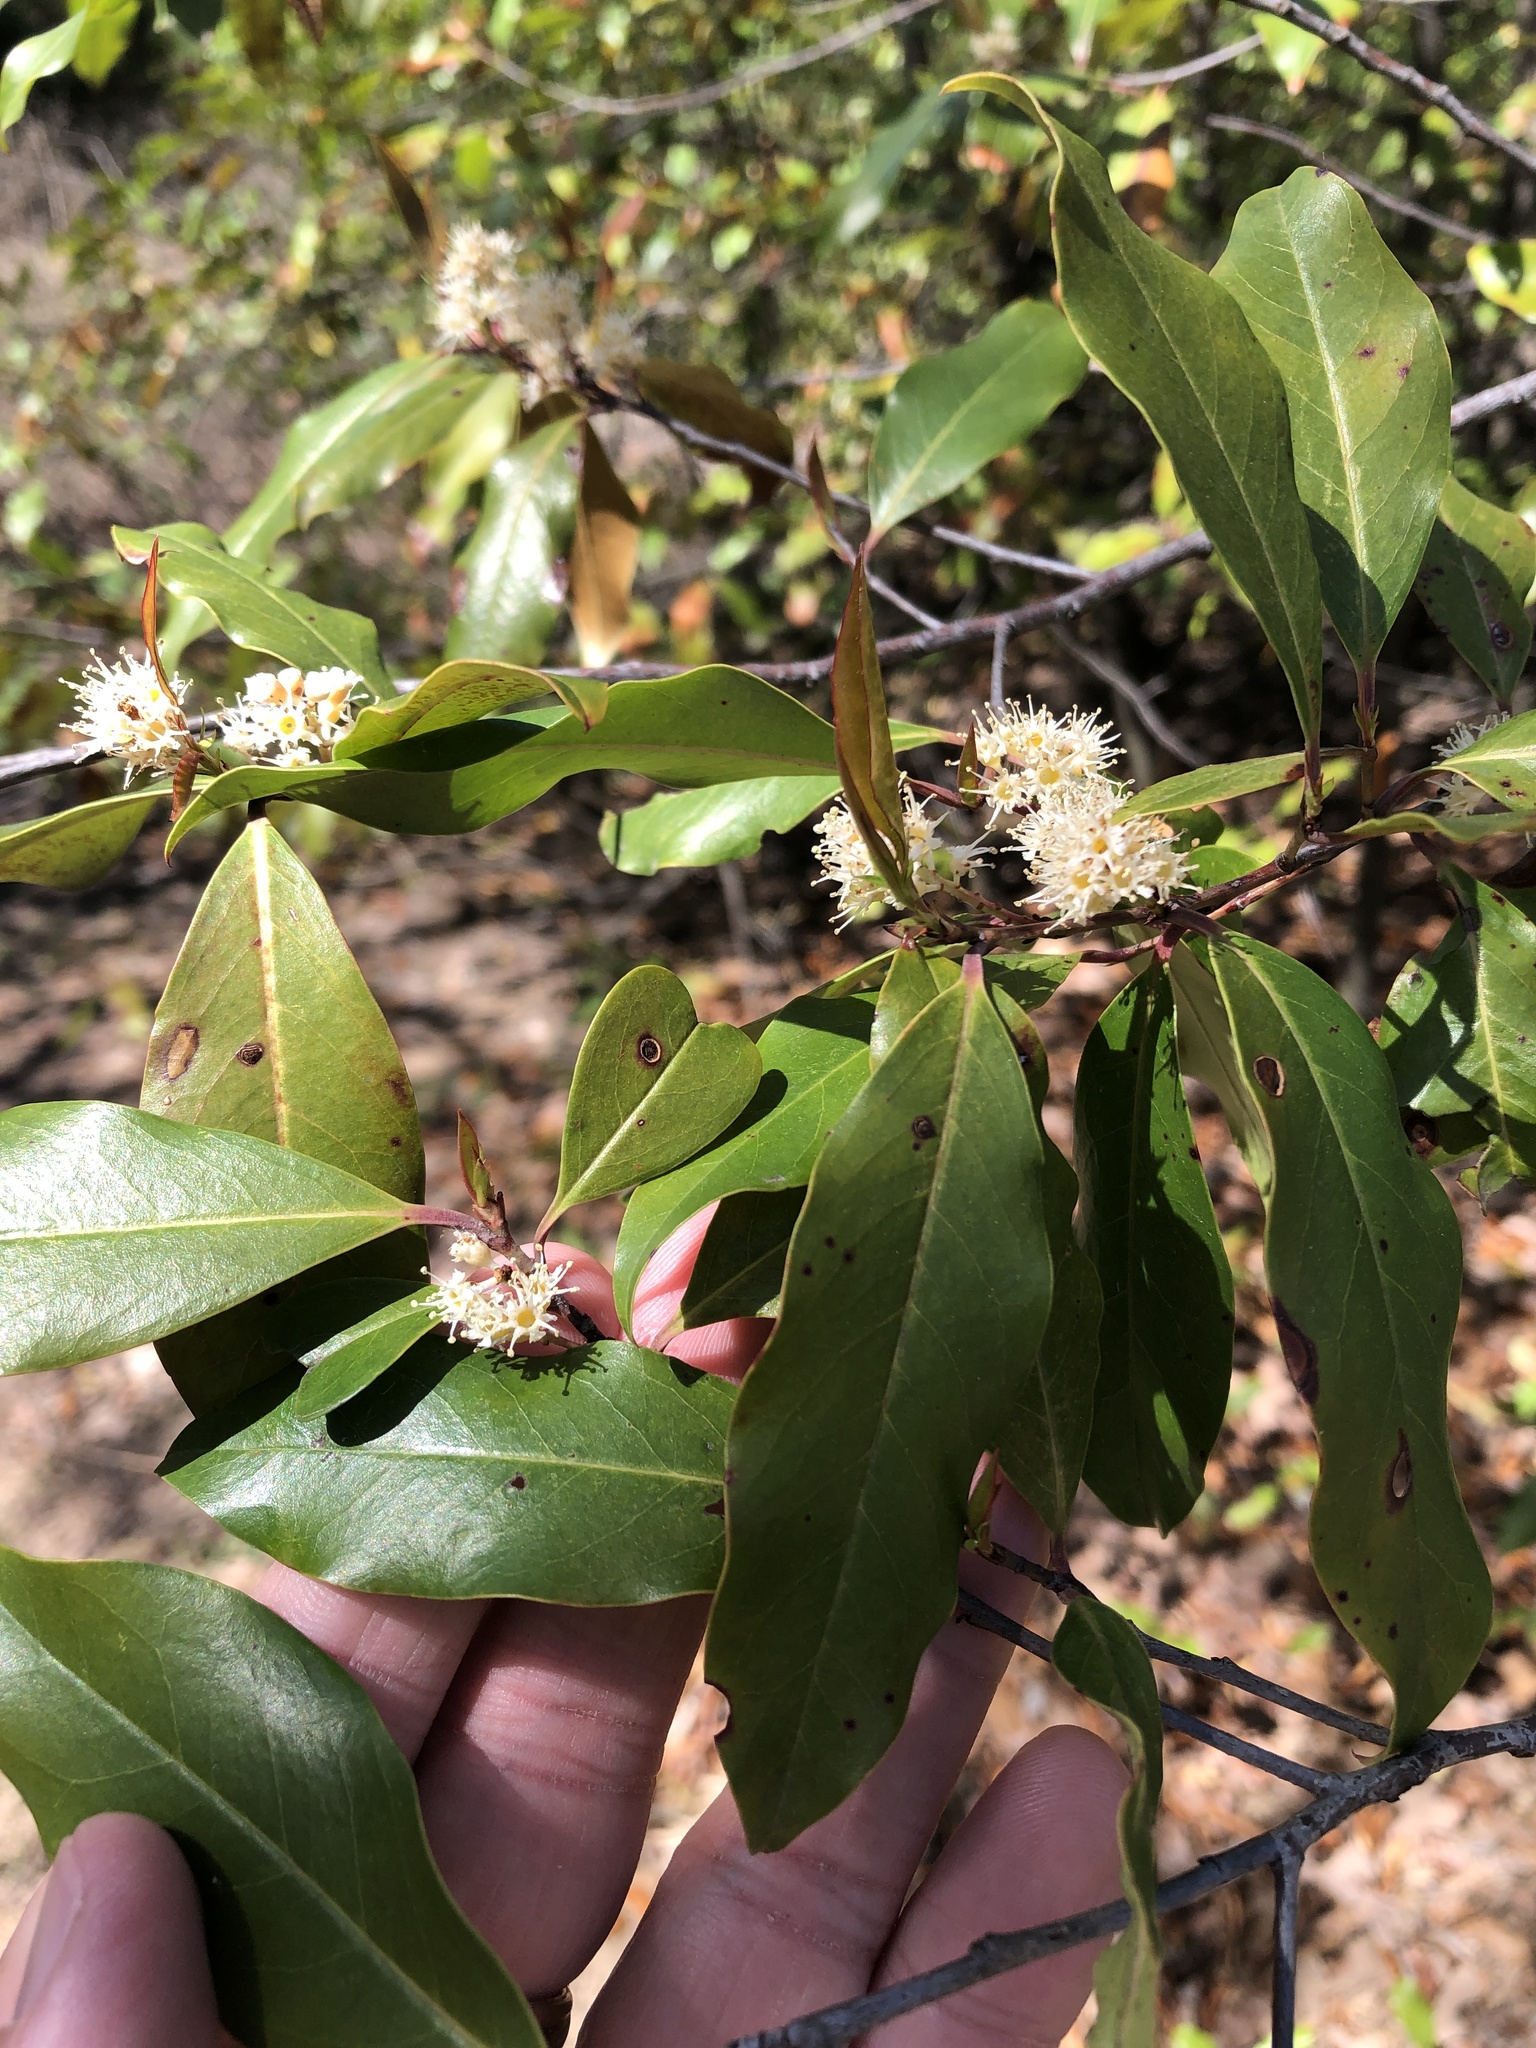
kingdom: Plantae
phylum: Tracheophyta
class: Magnoliopsida
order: Rosales
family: Rosaceae
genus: Prunus
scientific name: Prunus caroliniana
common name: Carolina laurel cherry
